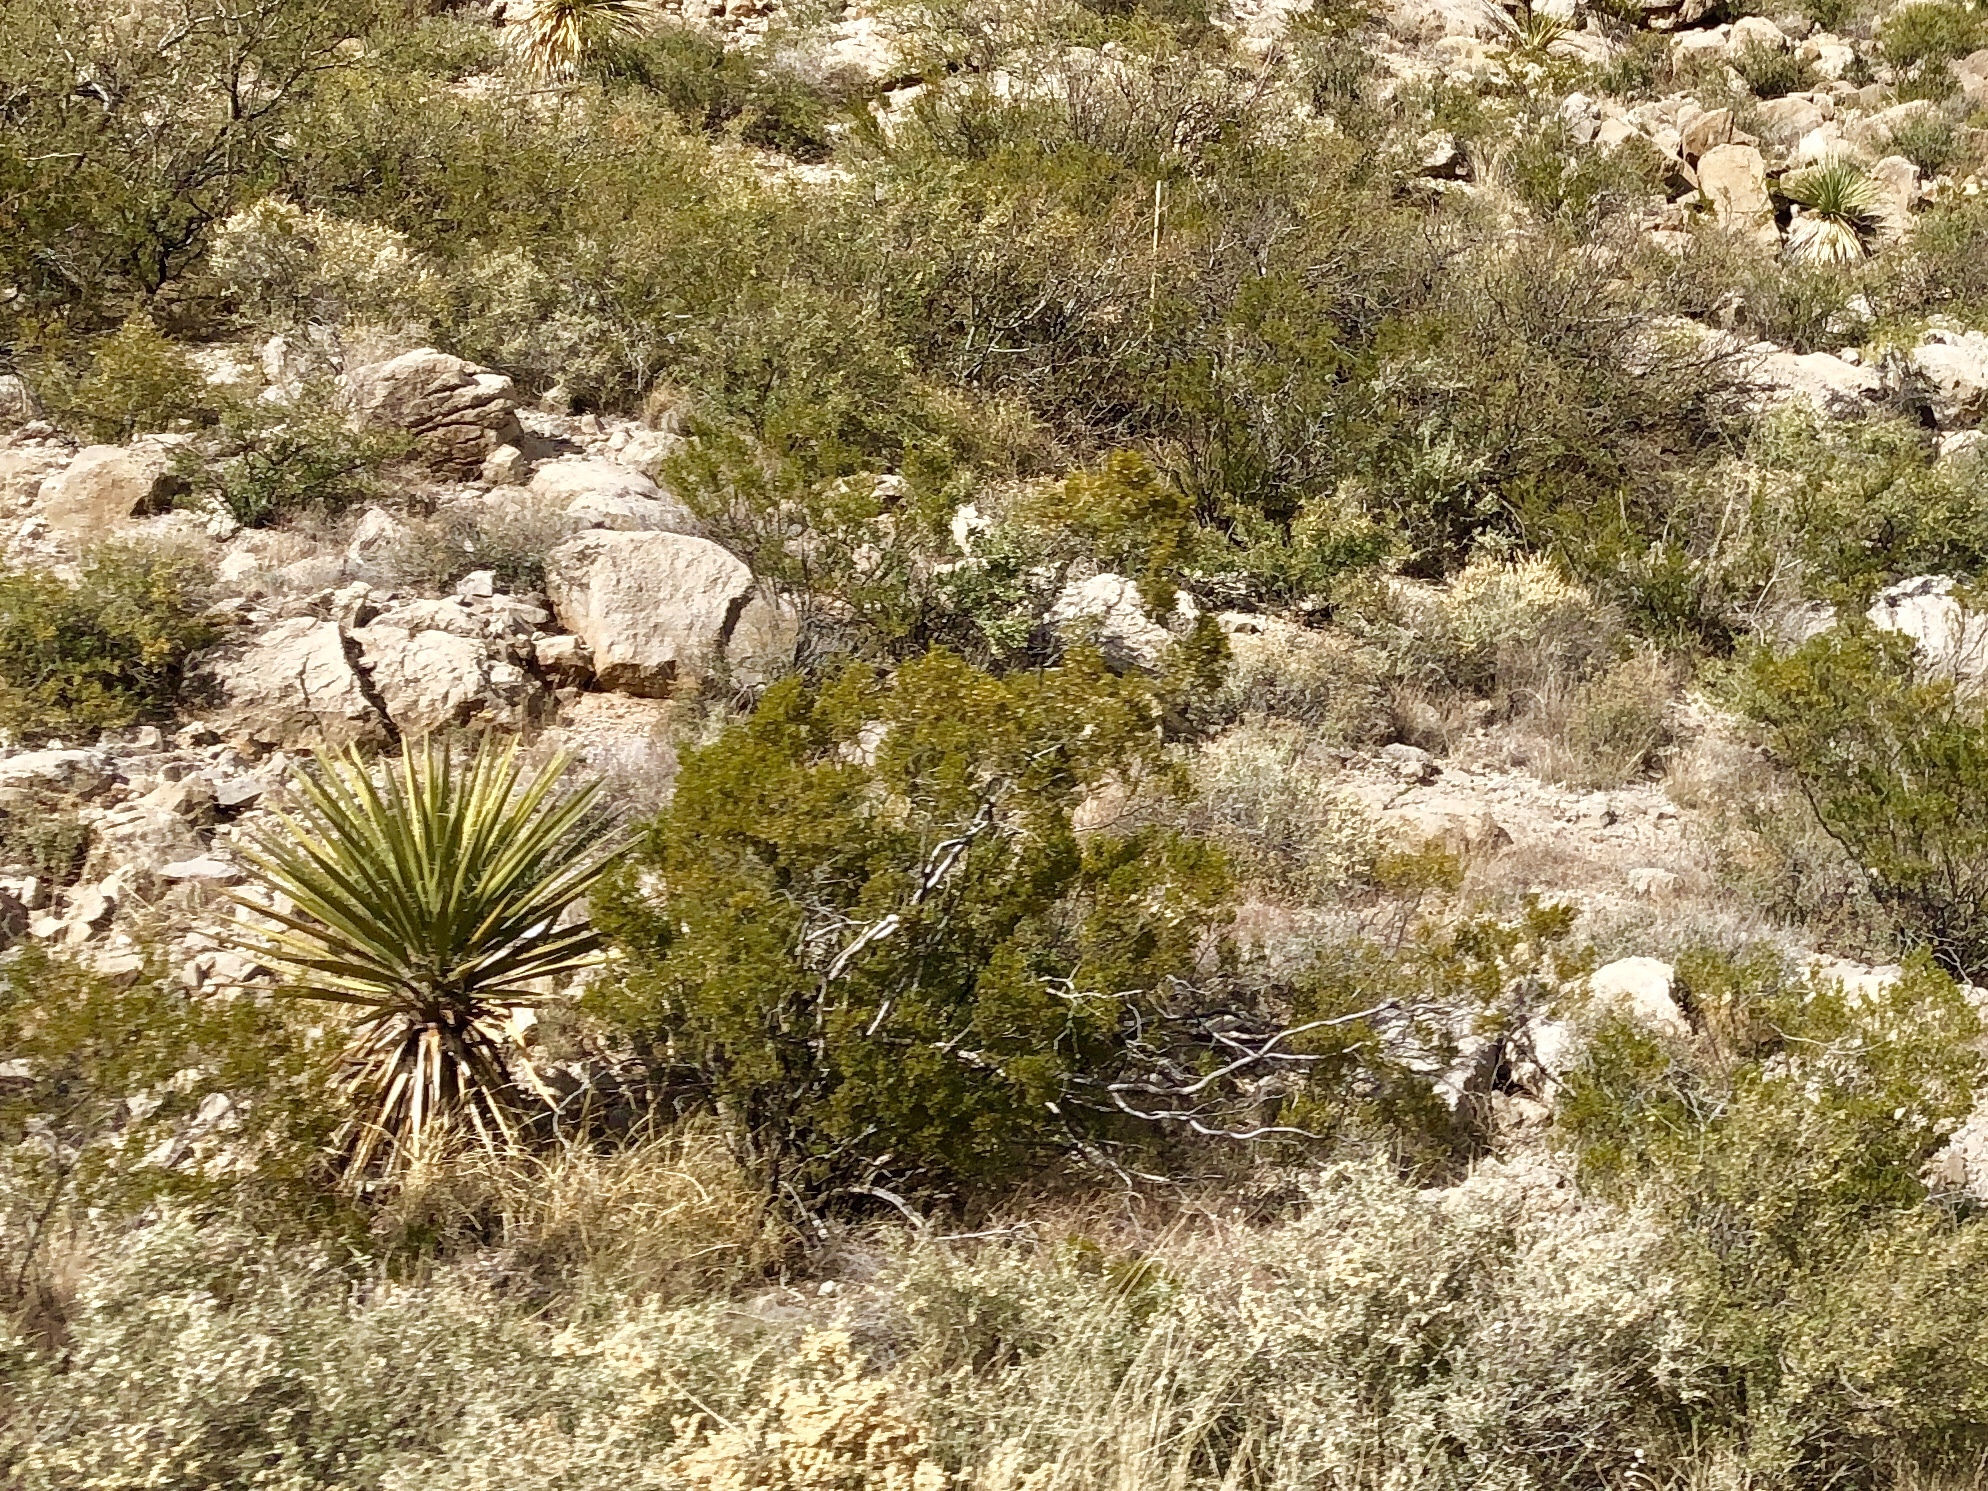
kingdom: Plantae
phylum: Tracheophyta
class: Magnoliopsida
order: Zygophyllales
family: Zygophyllaceae
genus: Larrea
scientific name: Larrea tridentata
